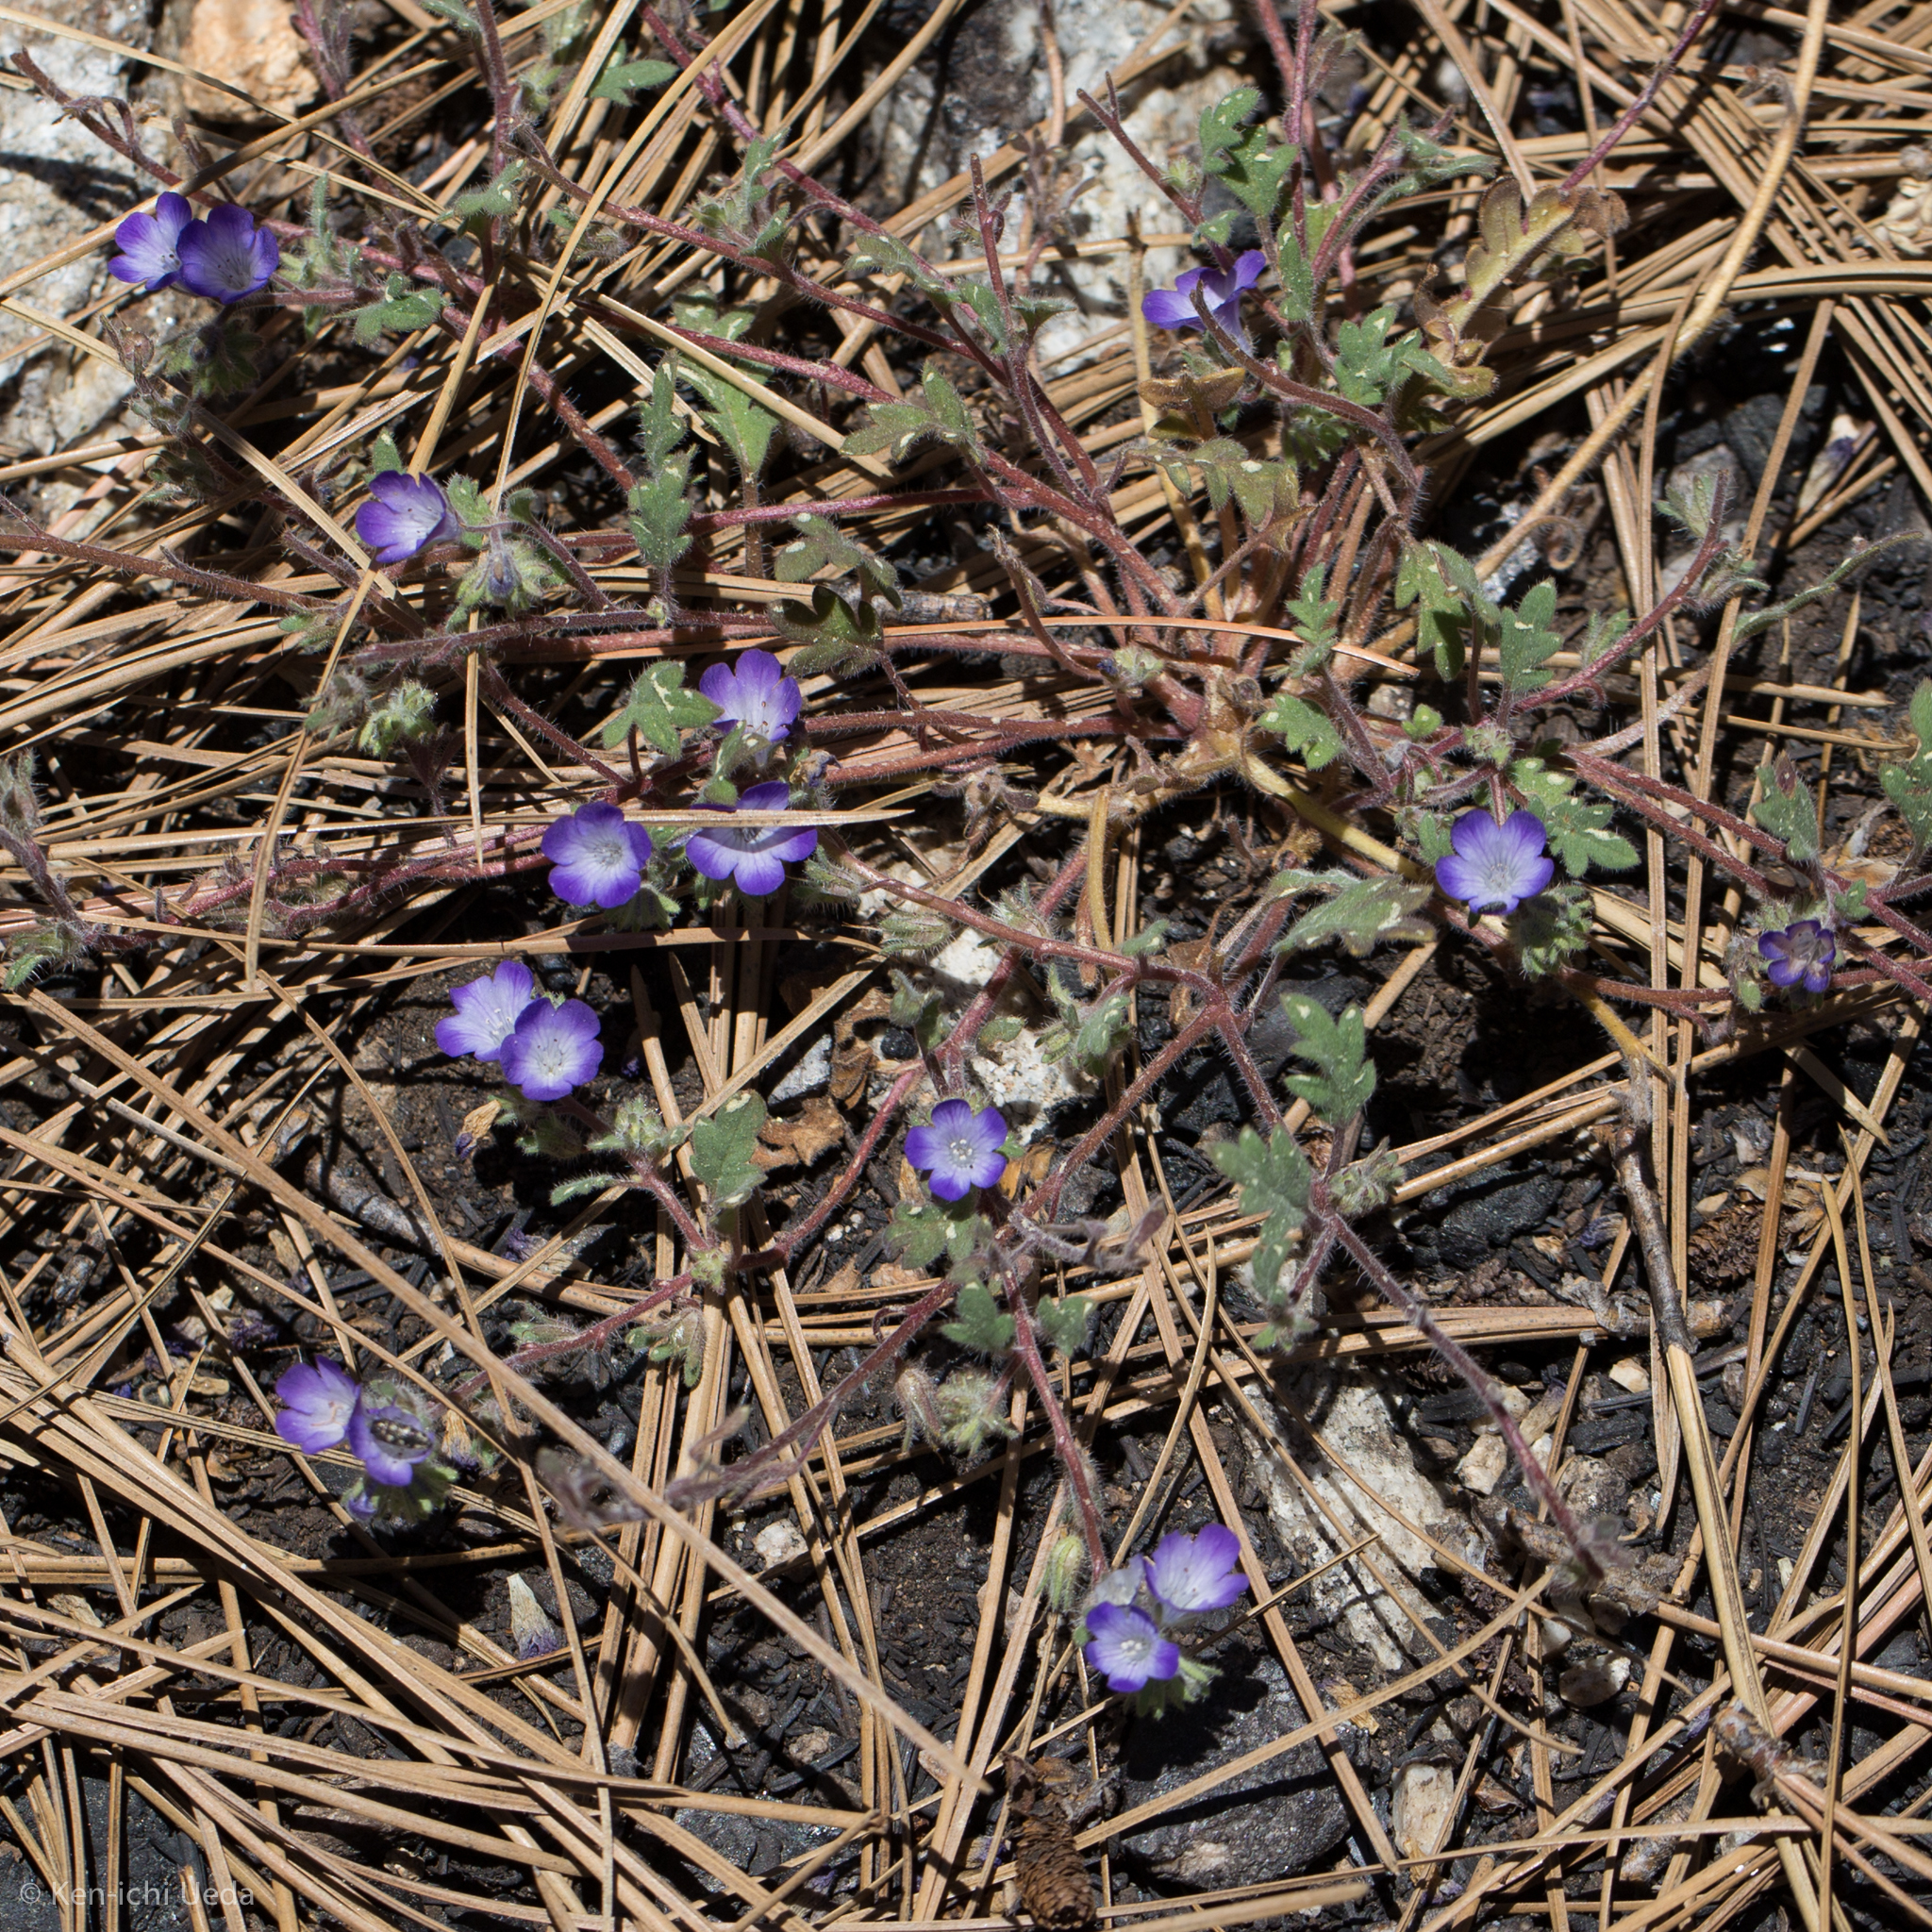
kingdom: Plantae
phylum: Tracheophyta
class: Magnoliopsida
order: Boraginales
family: Hydrophyllaceae
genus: Phacelia
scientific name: Phacelia davidsonii
